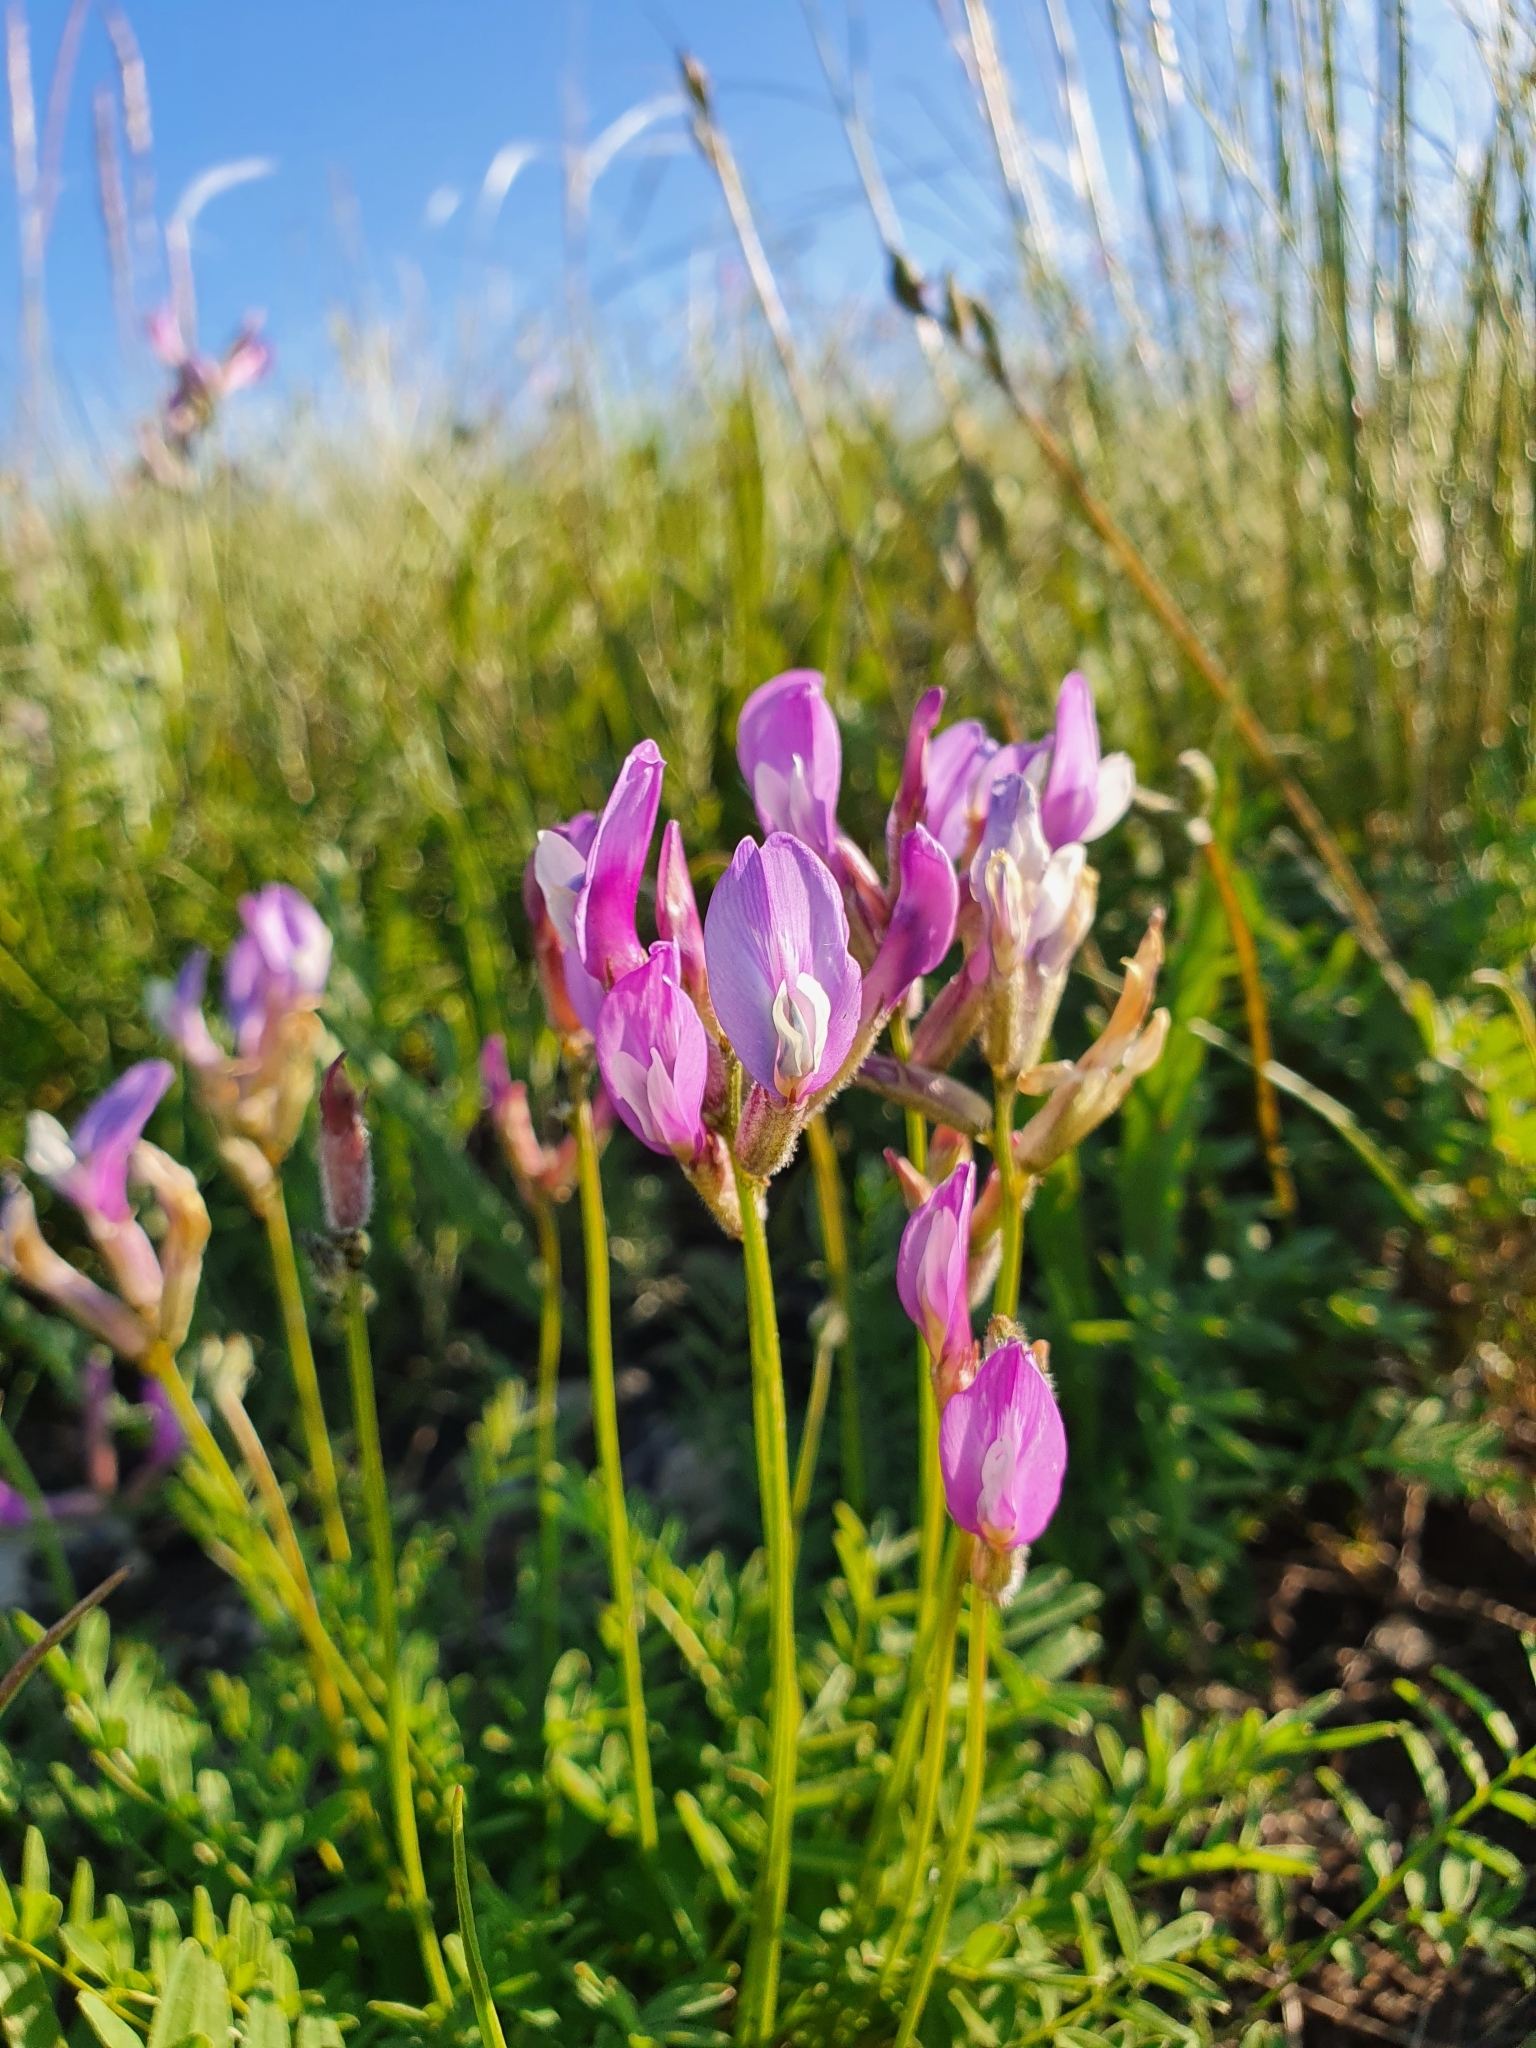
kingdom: Plantae
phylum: Tracheophyta
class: Magnoliopsida
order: Fabales
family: Fabaceae
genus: Astragalus
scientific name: Astragalus macropus
